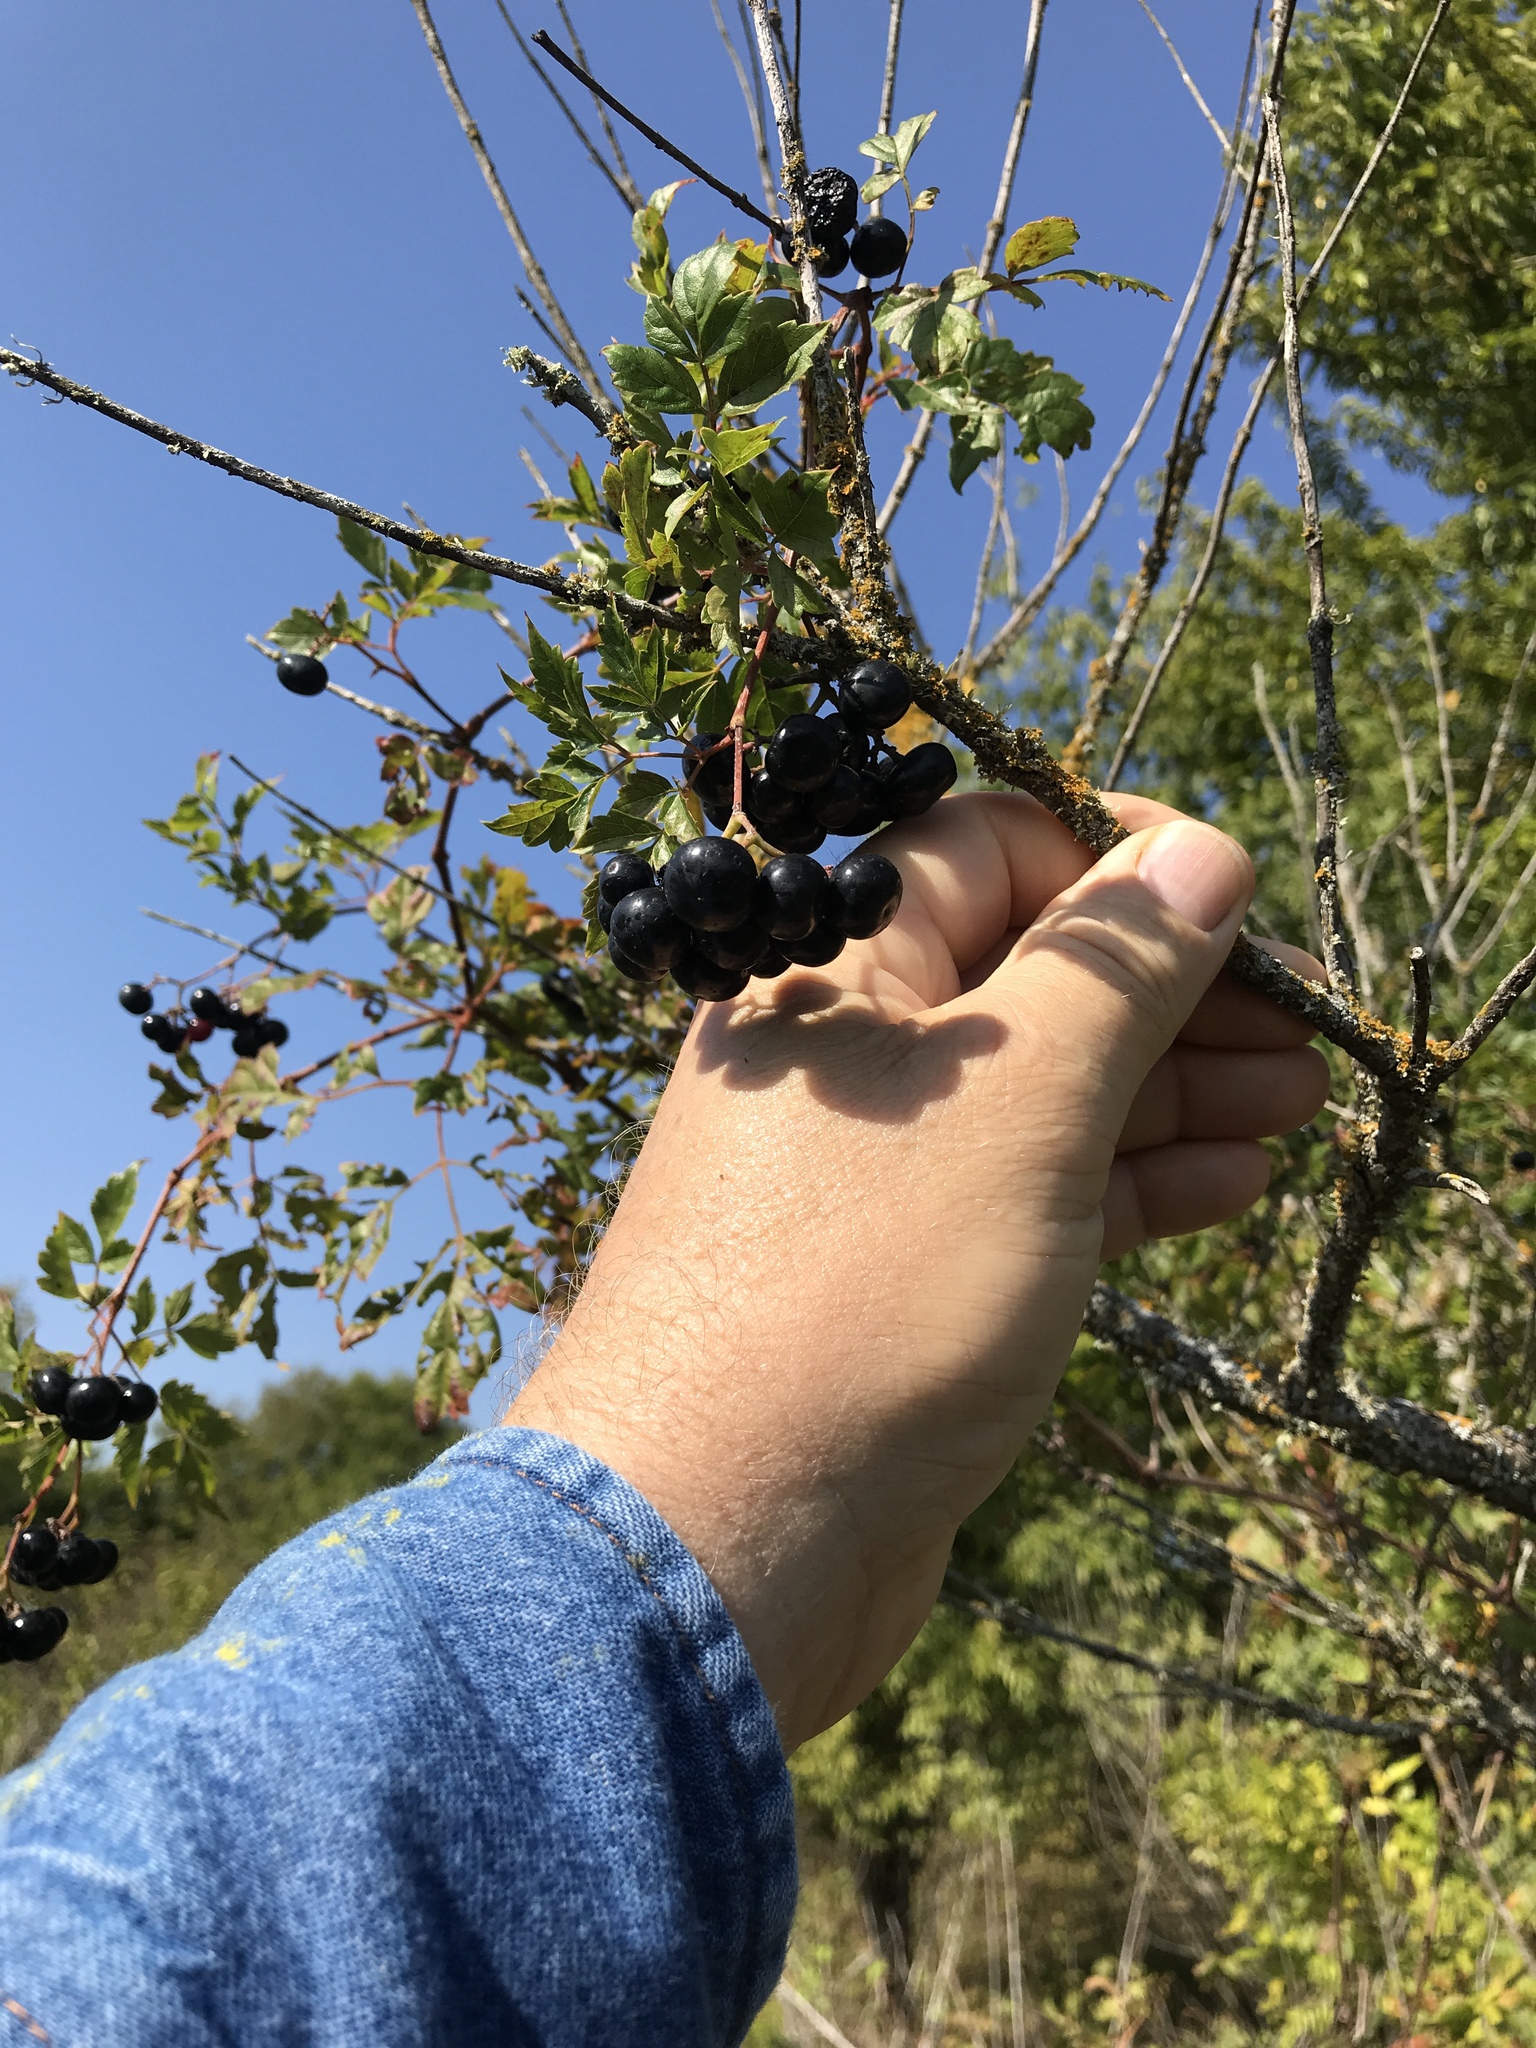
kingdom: Plantae
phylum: Tracheophyta
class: Magnoliopsida
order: Vitales
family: Vitaceae
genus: Nekemias
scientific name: Nekemias arborea
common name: Peppervine
